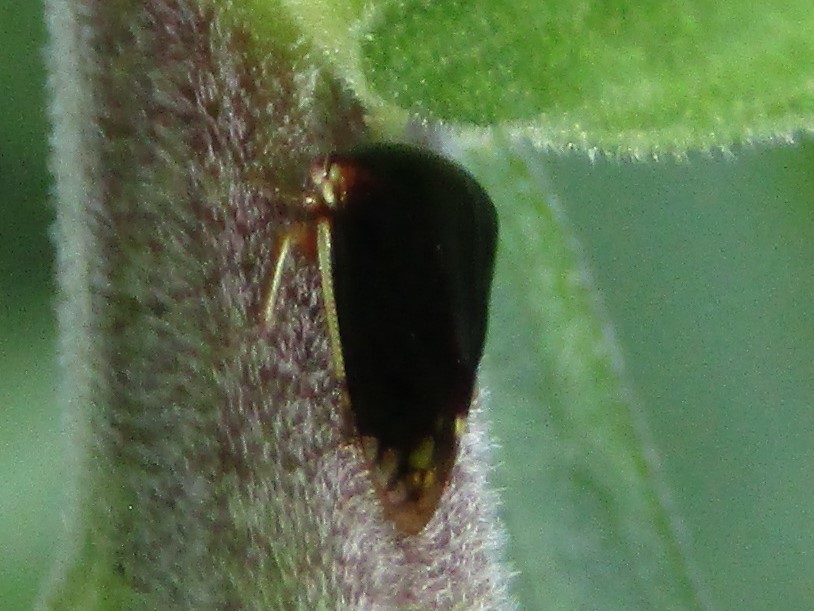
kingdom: Animalia
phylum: Arthropoda
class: Insecta
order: Hemiptera
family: Membracidae
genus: Acutalis
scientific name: Acutalis tartarea
